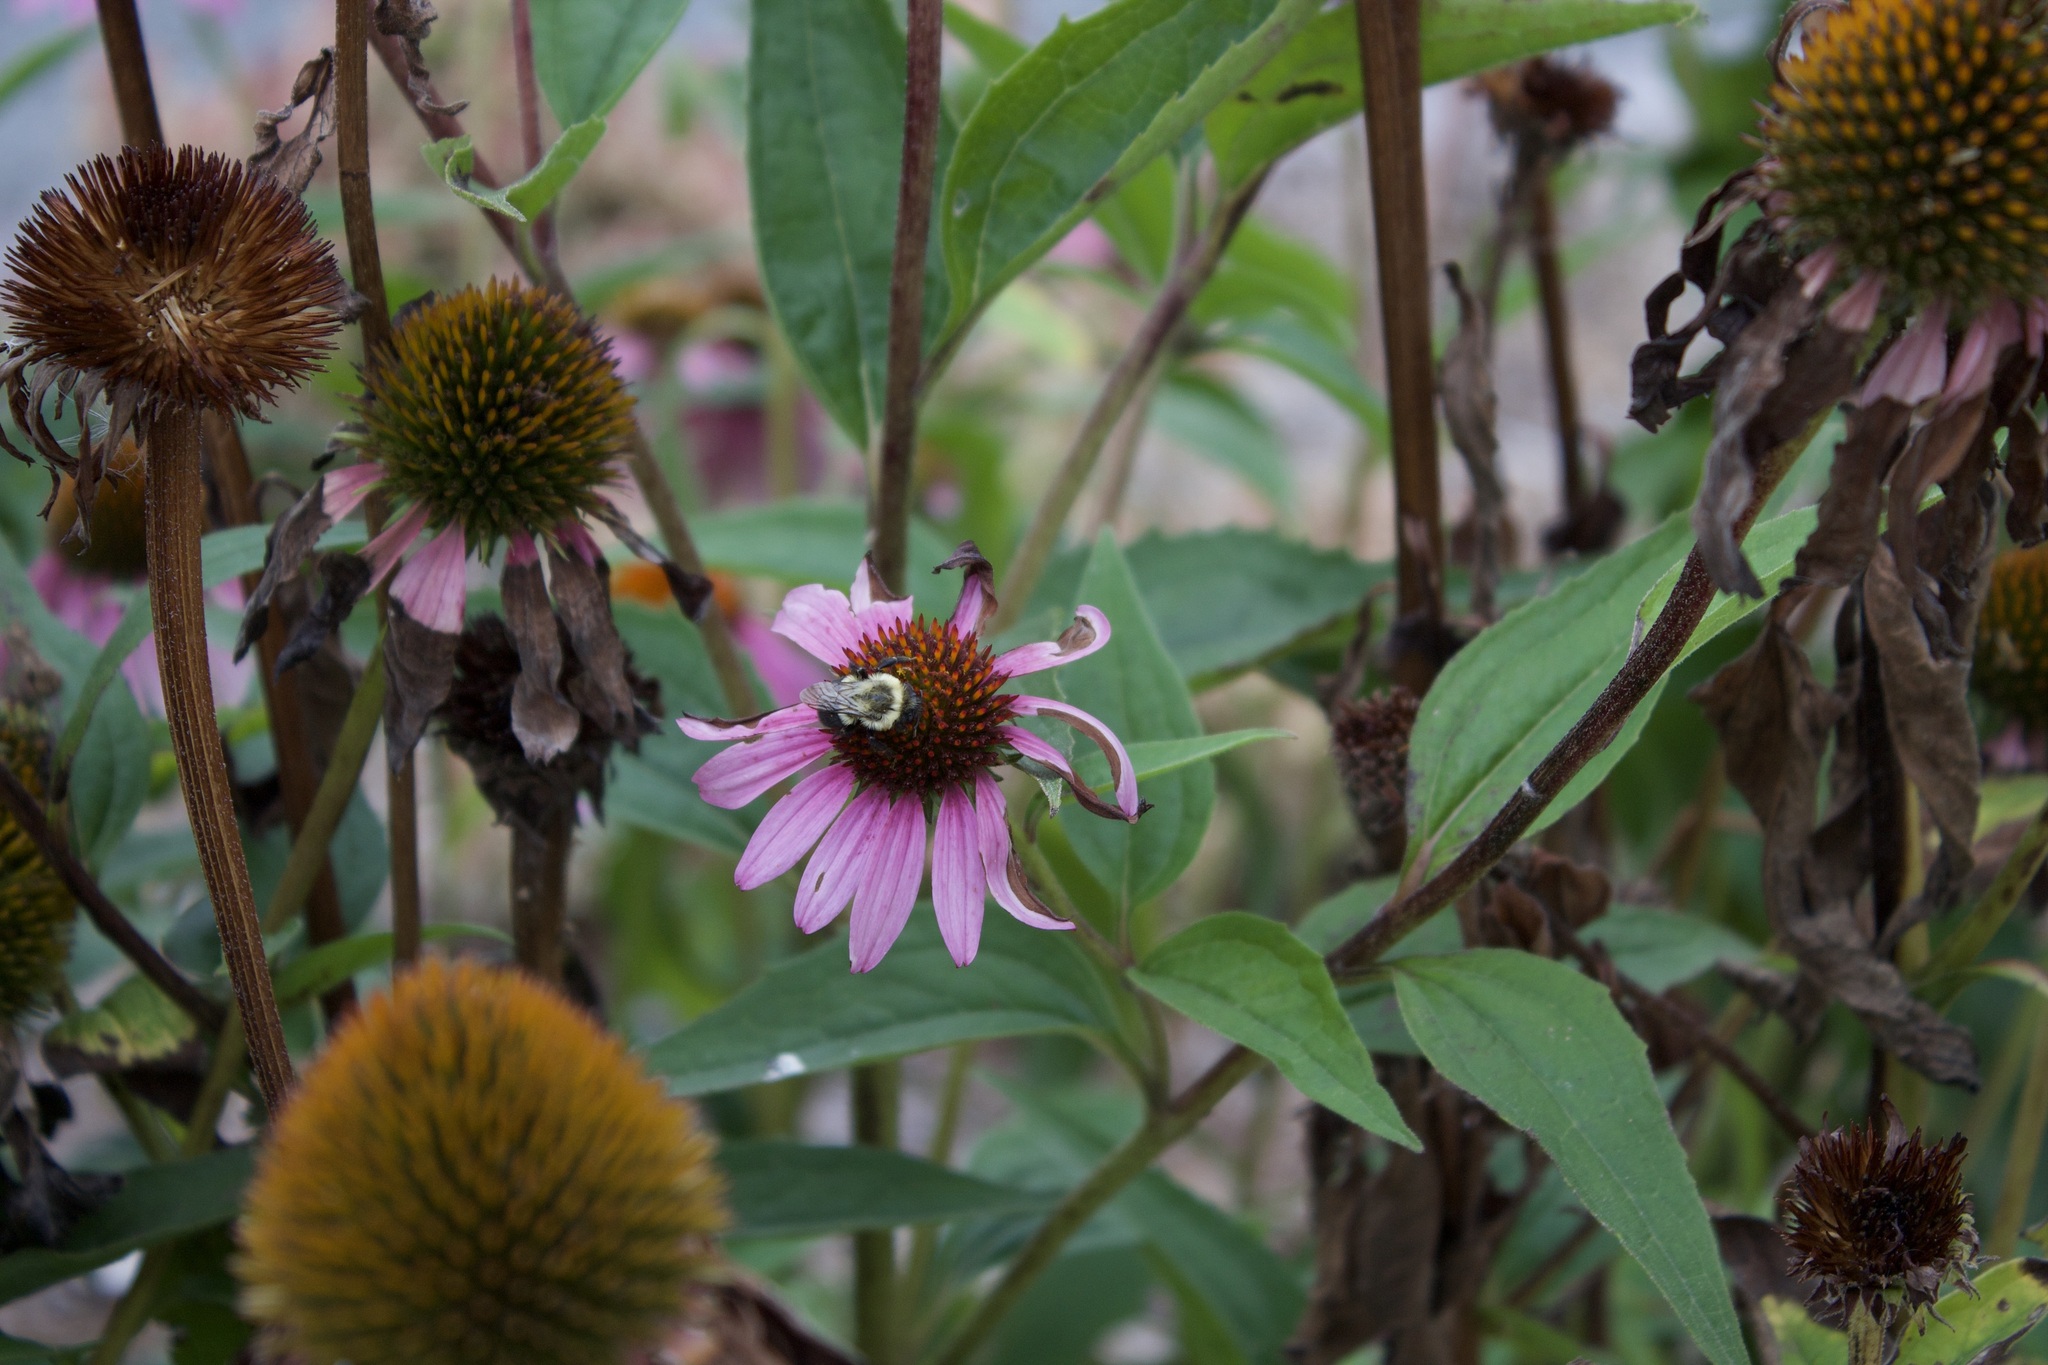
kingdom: Animalia
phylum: Arthropoda
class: Insecta
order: Hymenoptera
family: Apidae
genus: Bombus
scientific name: Bombus impatiens
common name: Common eastern bumble bee
